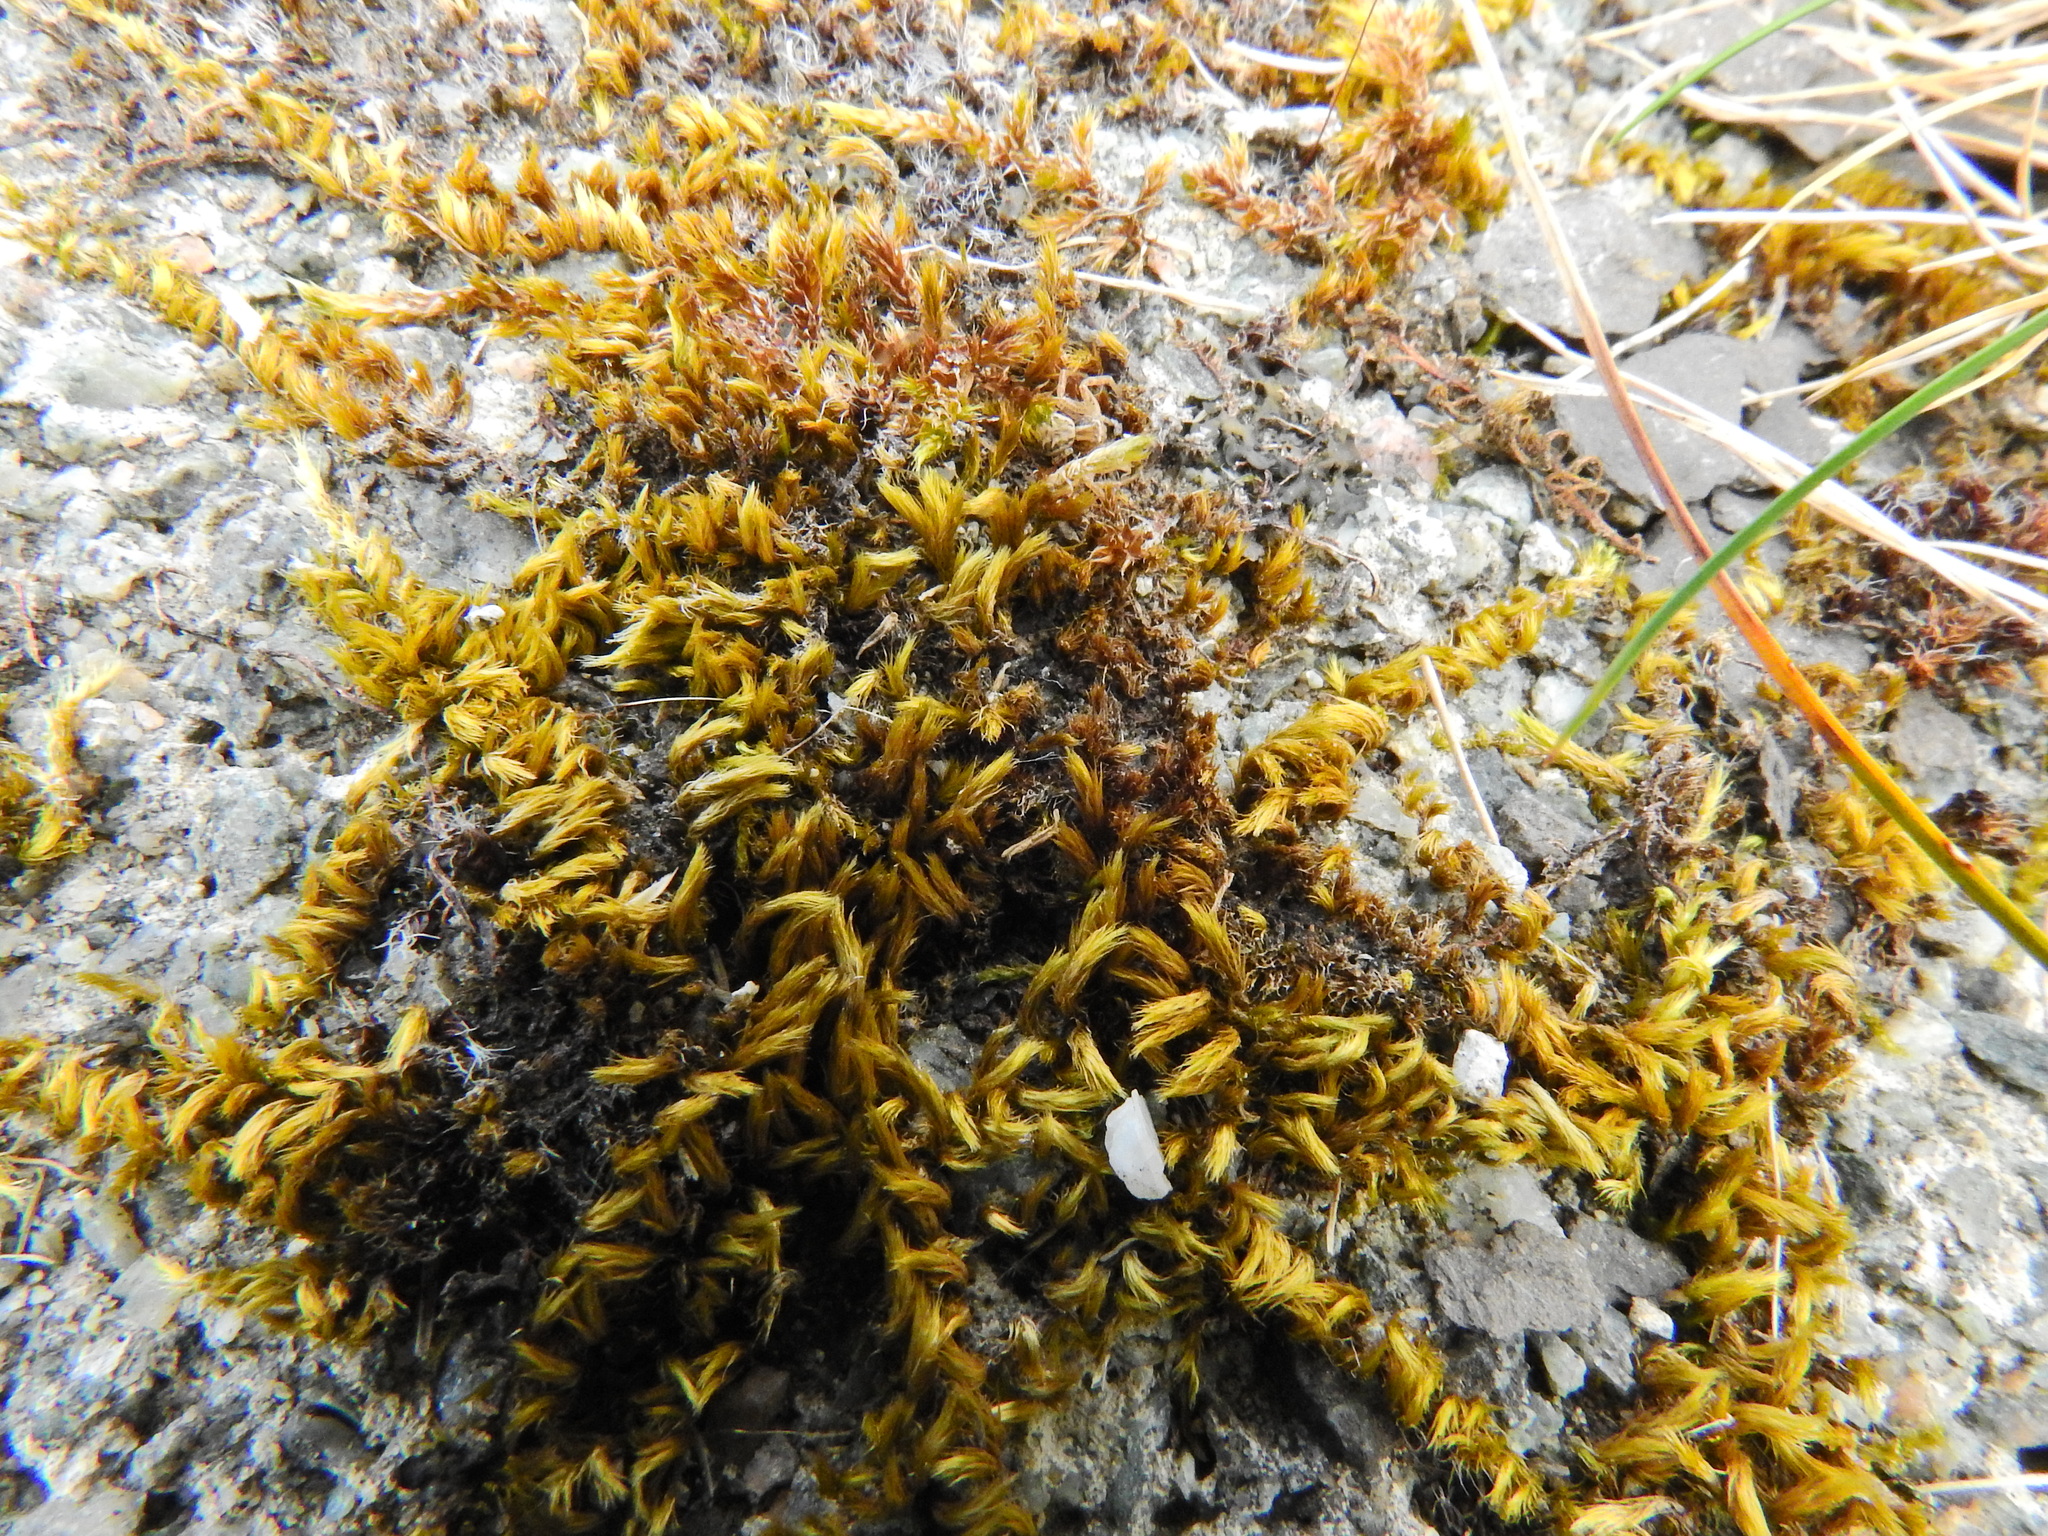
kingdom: Plantae
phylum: Bryophyta
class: Bryopsida
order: Hypnales
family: Brachytheciaceae
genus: Homalothecium
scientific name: Homalothecium sericeum
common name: Silky wall feather-moss
